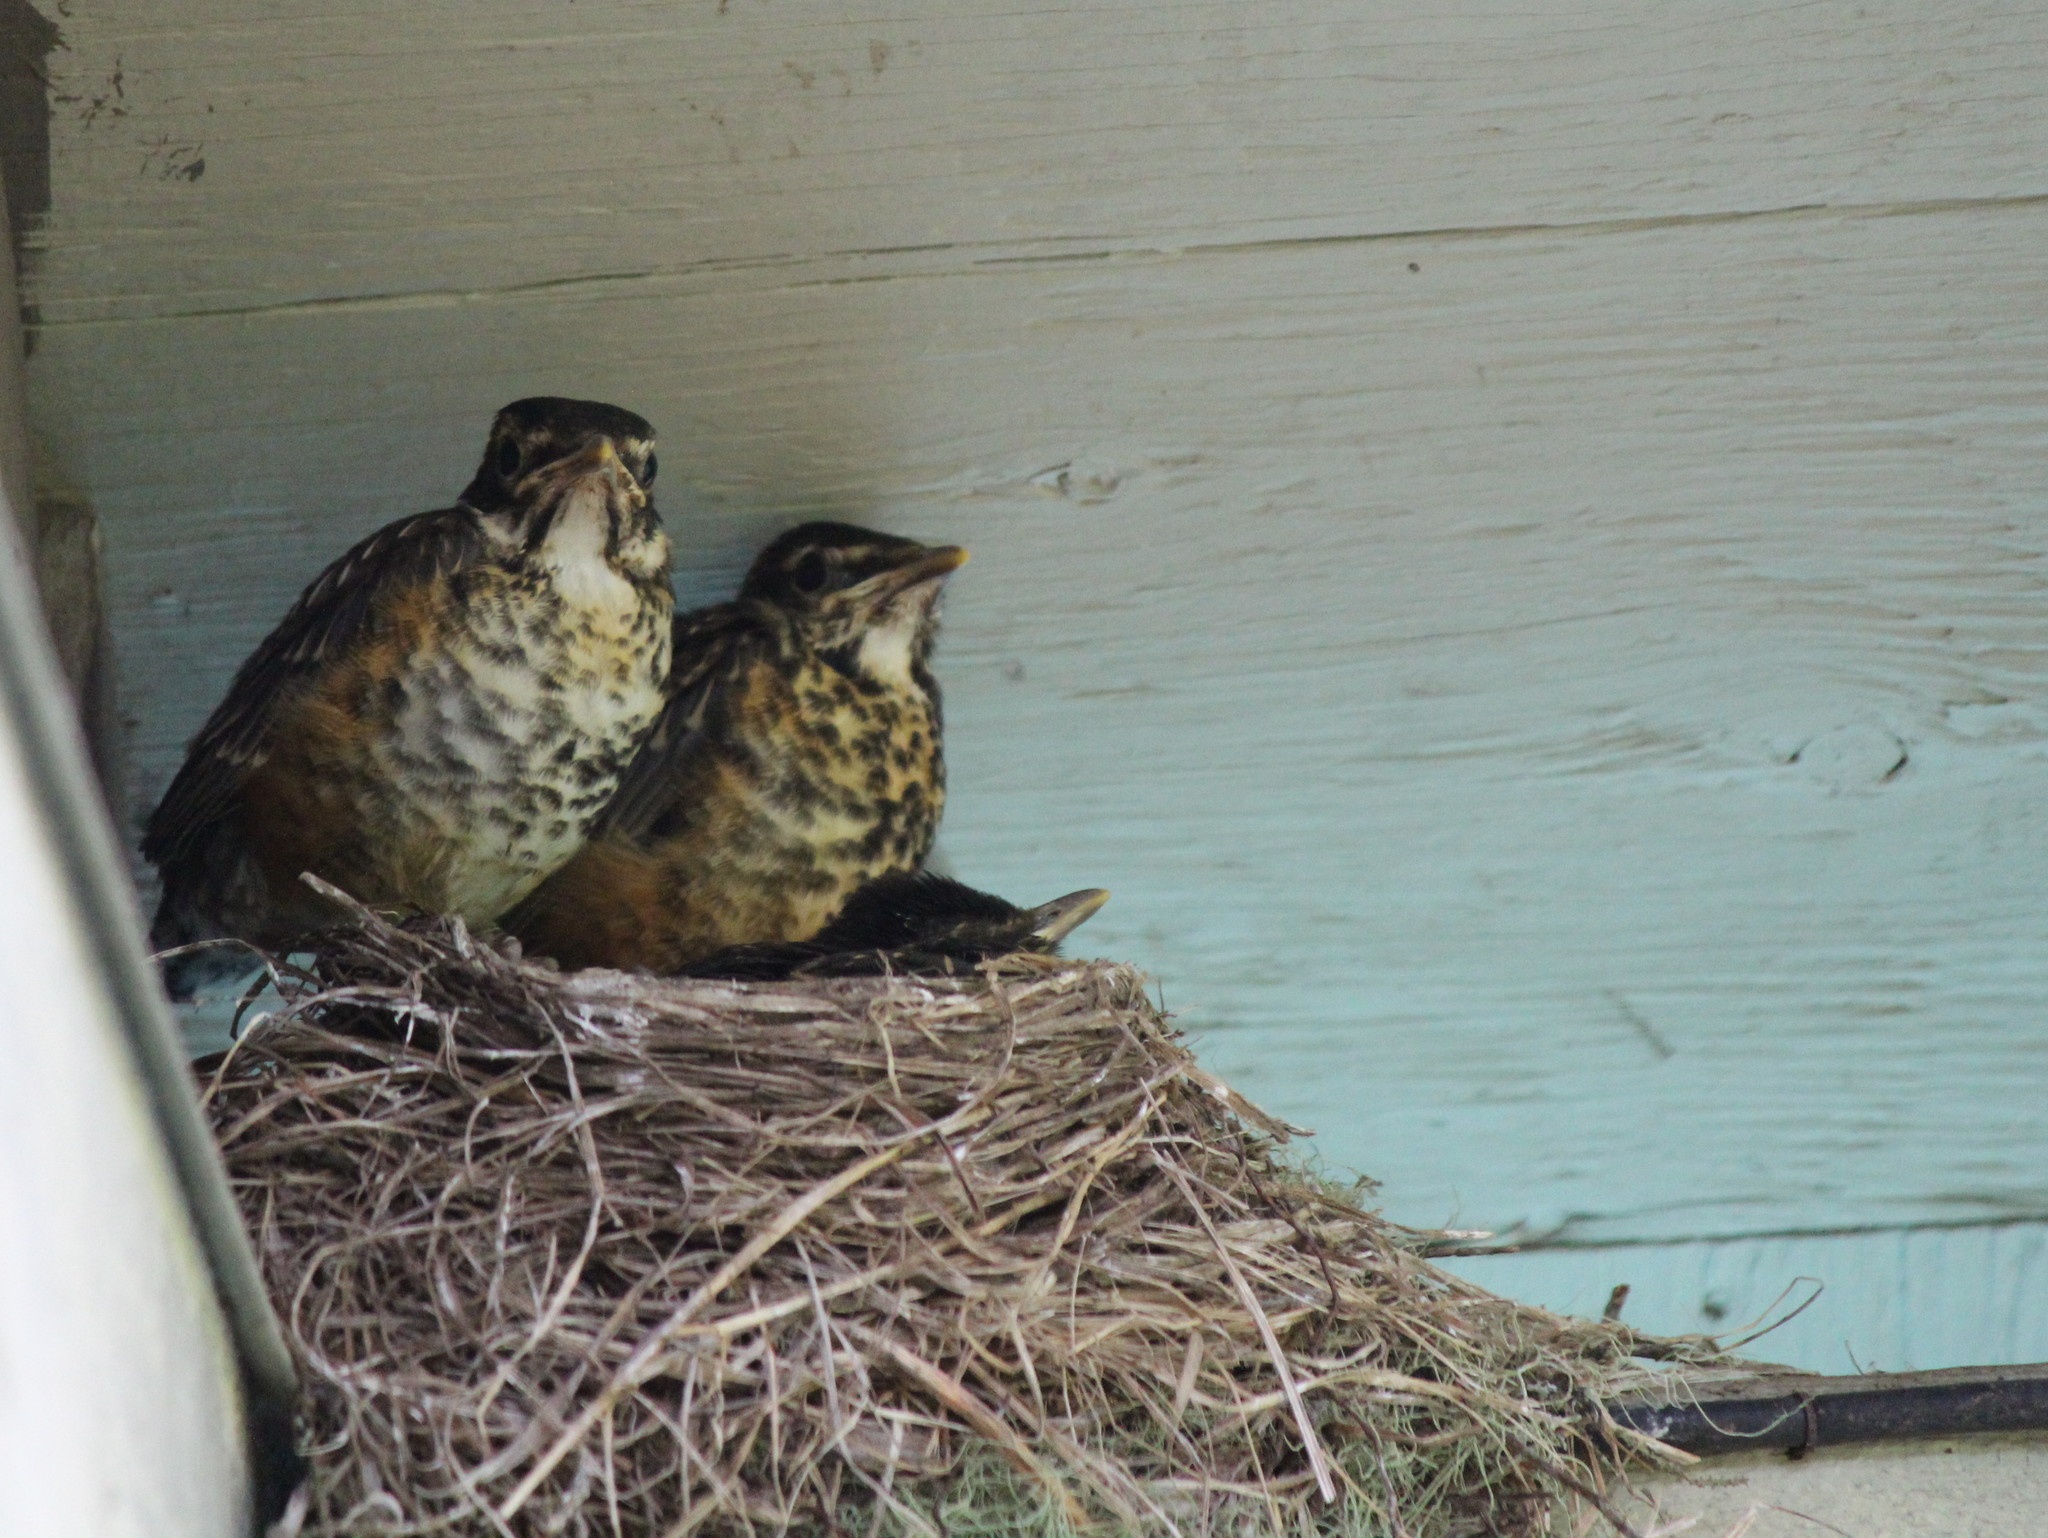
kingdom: Animalia
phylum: Chordata
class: Aves
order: Passeriformes
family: Turdidae
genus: Turdus
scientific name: Turdus migratorius
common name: American robin
